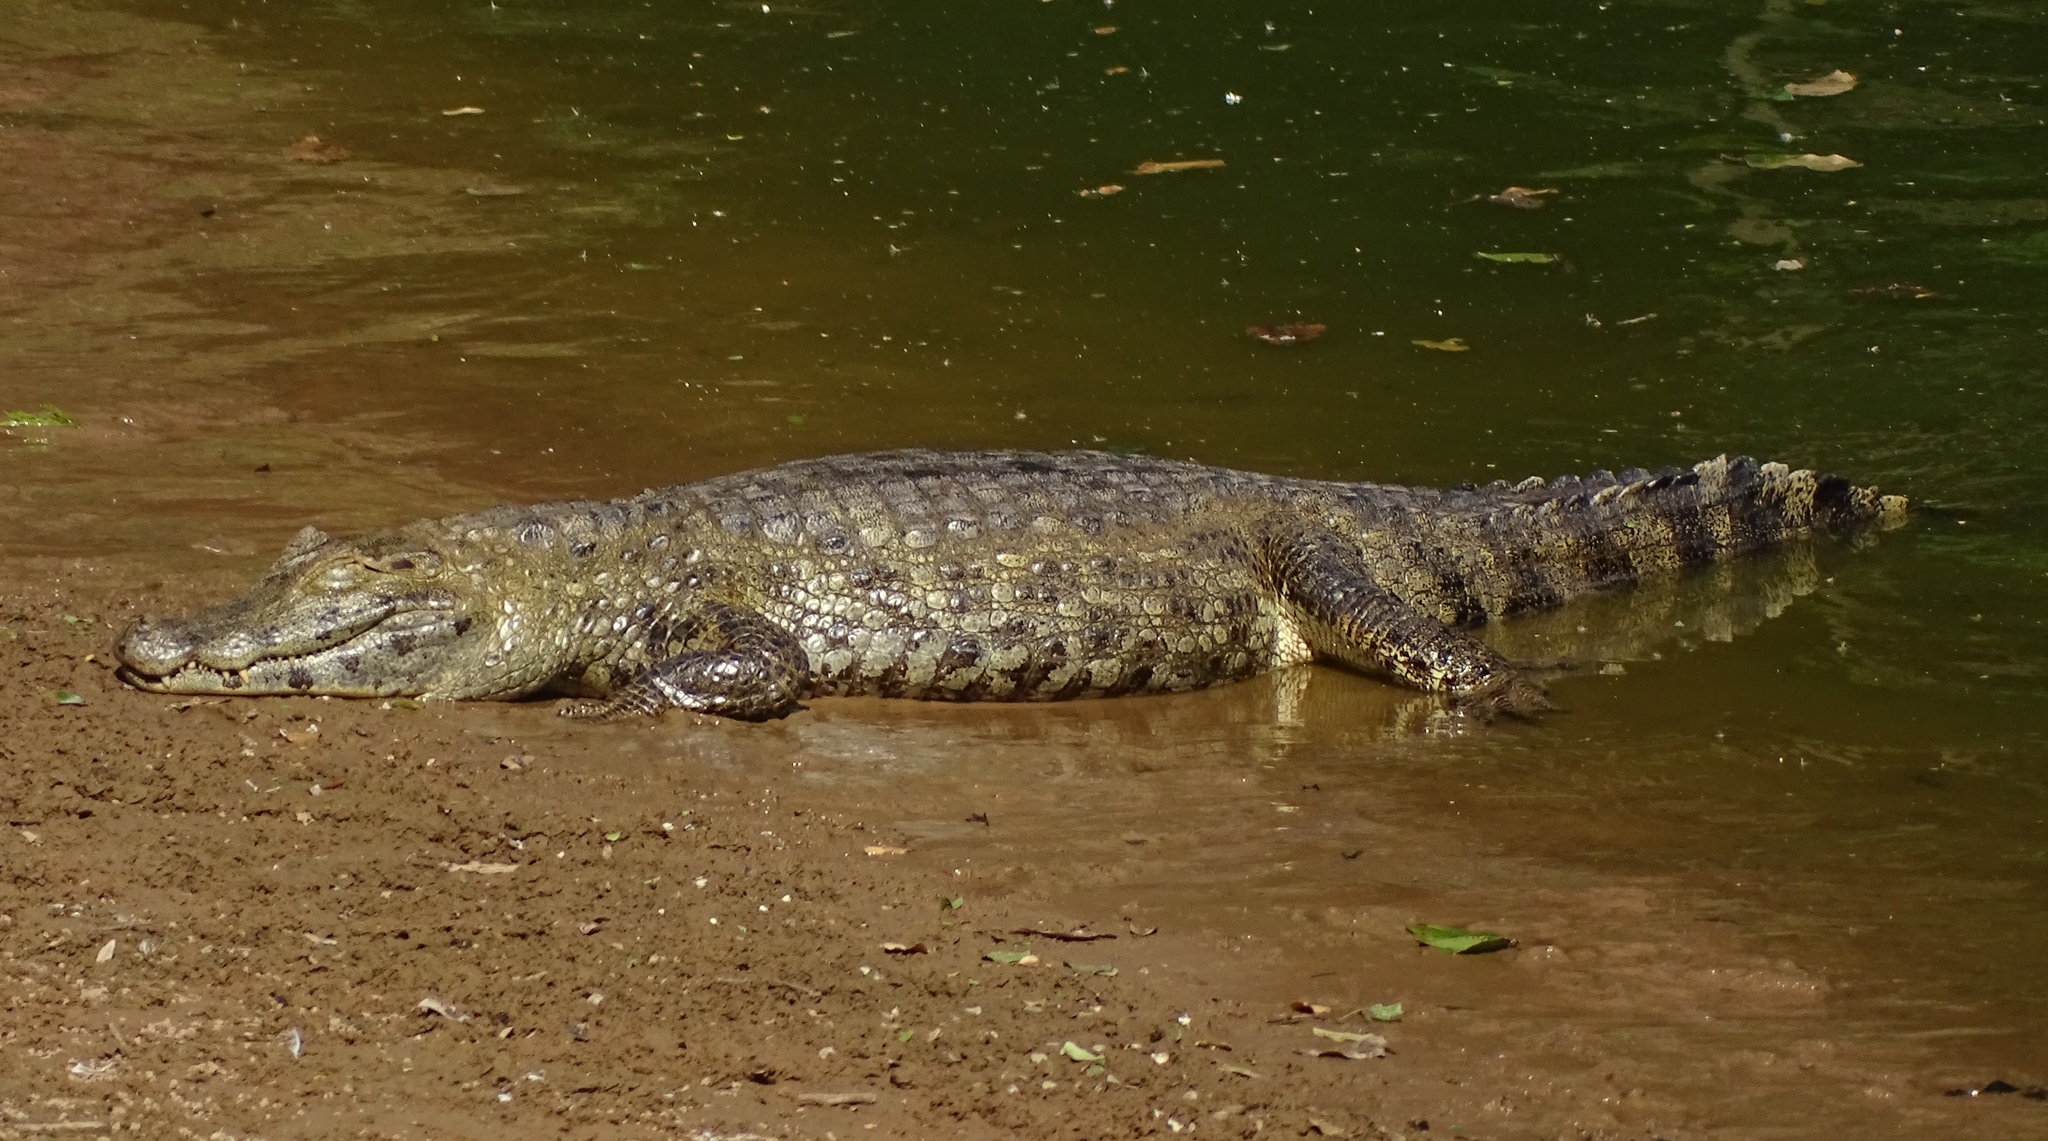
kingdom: Animalia
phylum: Chordata
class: Crocodylia
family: Alligatoridae
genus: Caiman
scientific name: Caiman yacare
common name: Yacare caiman
